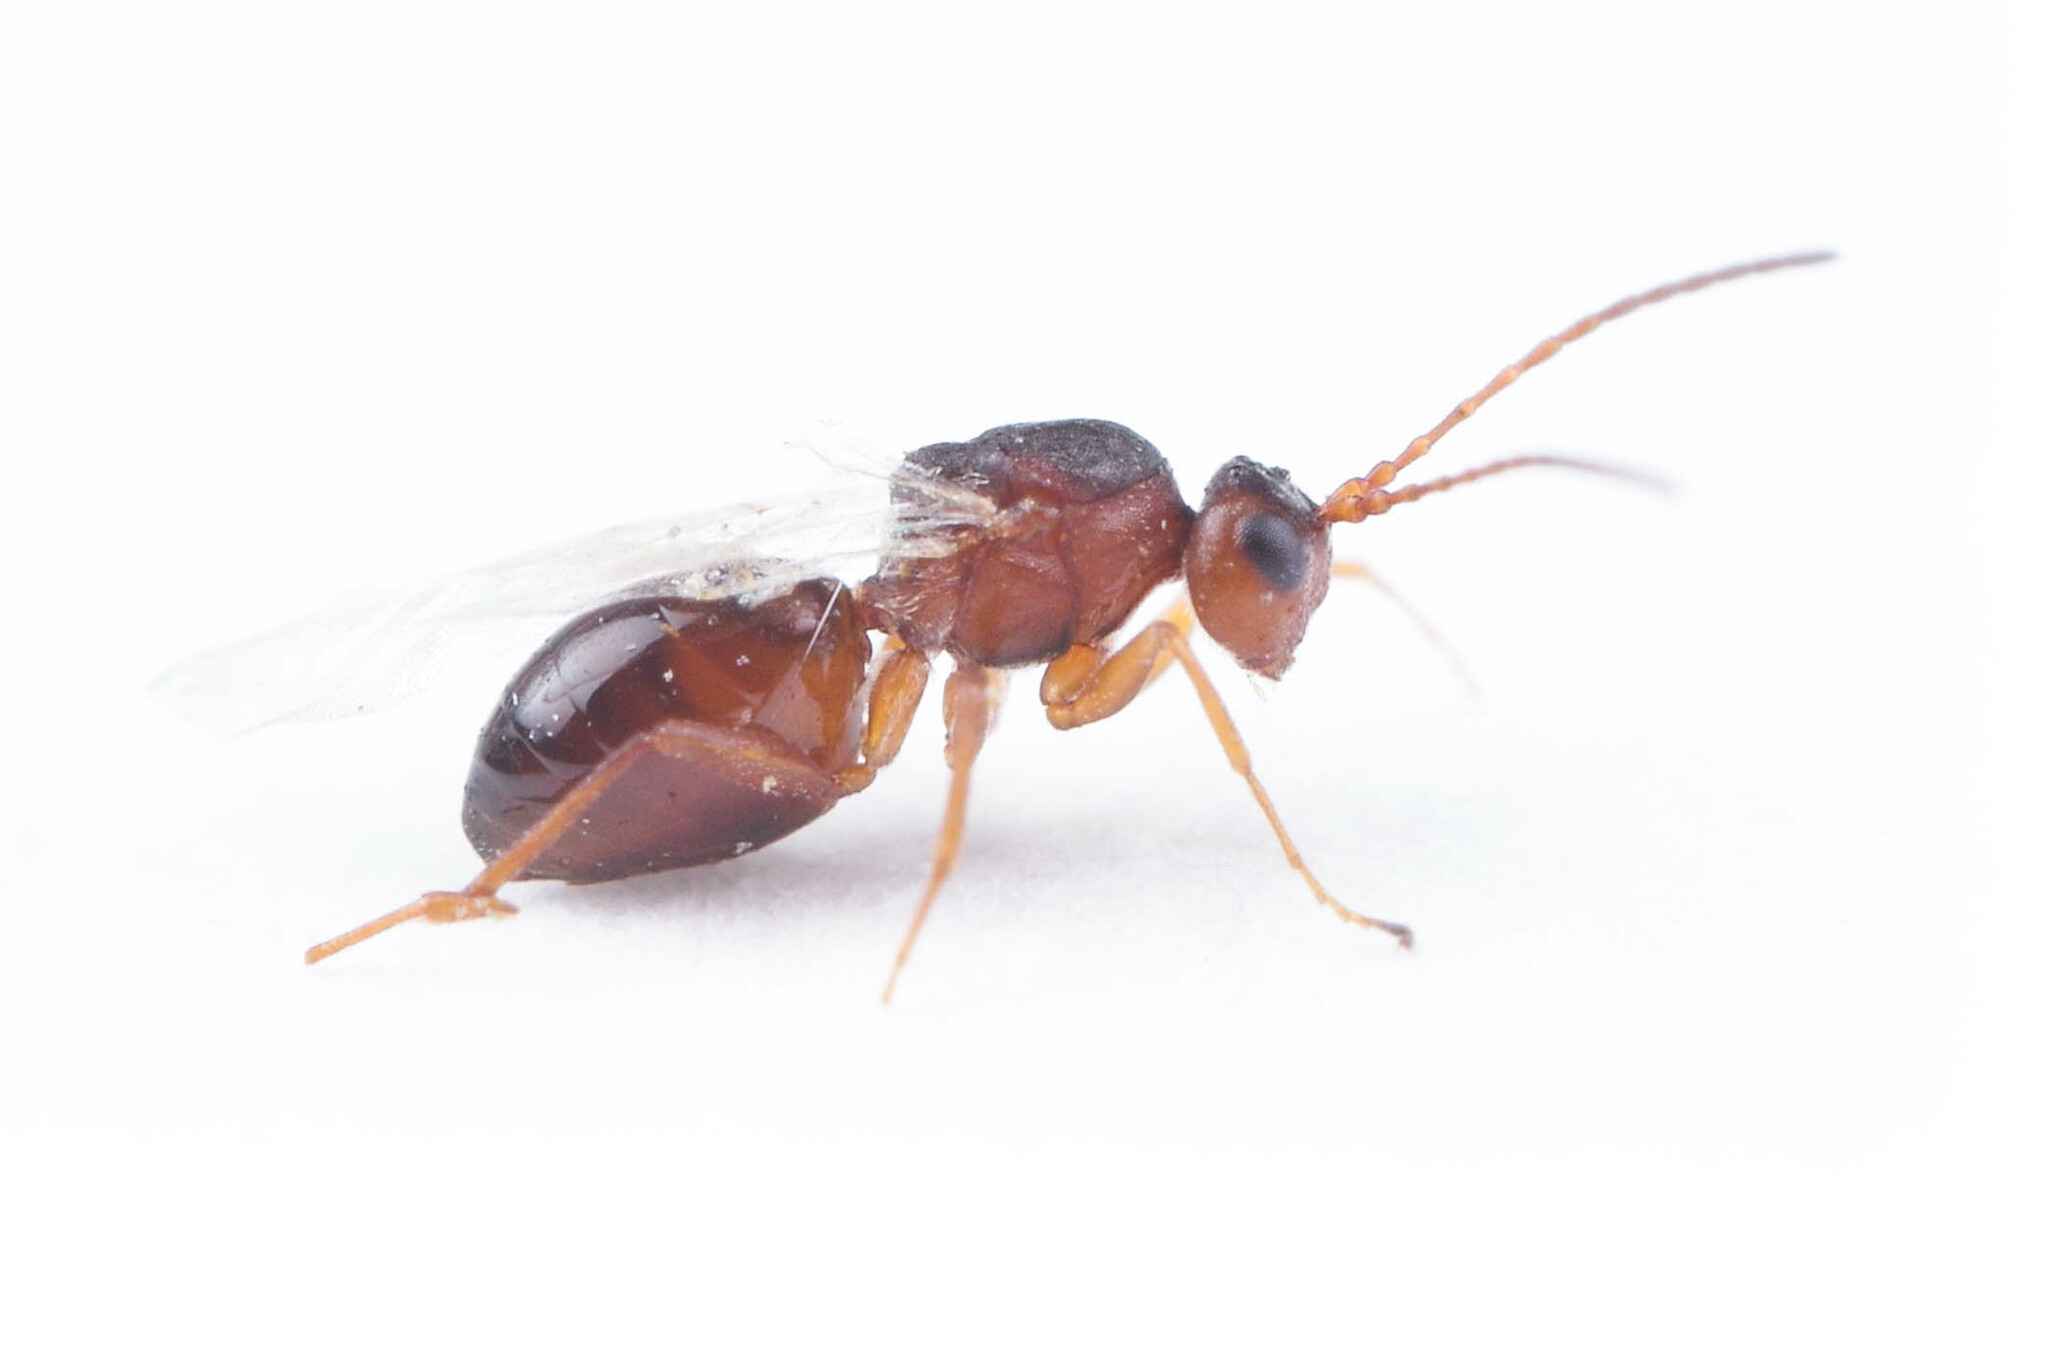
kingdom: Animalia
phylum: Arthropoda
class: Insecta
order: Hymenoptera
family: Cynipidae
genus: Antistrophus
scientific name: Antistrophus
